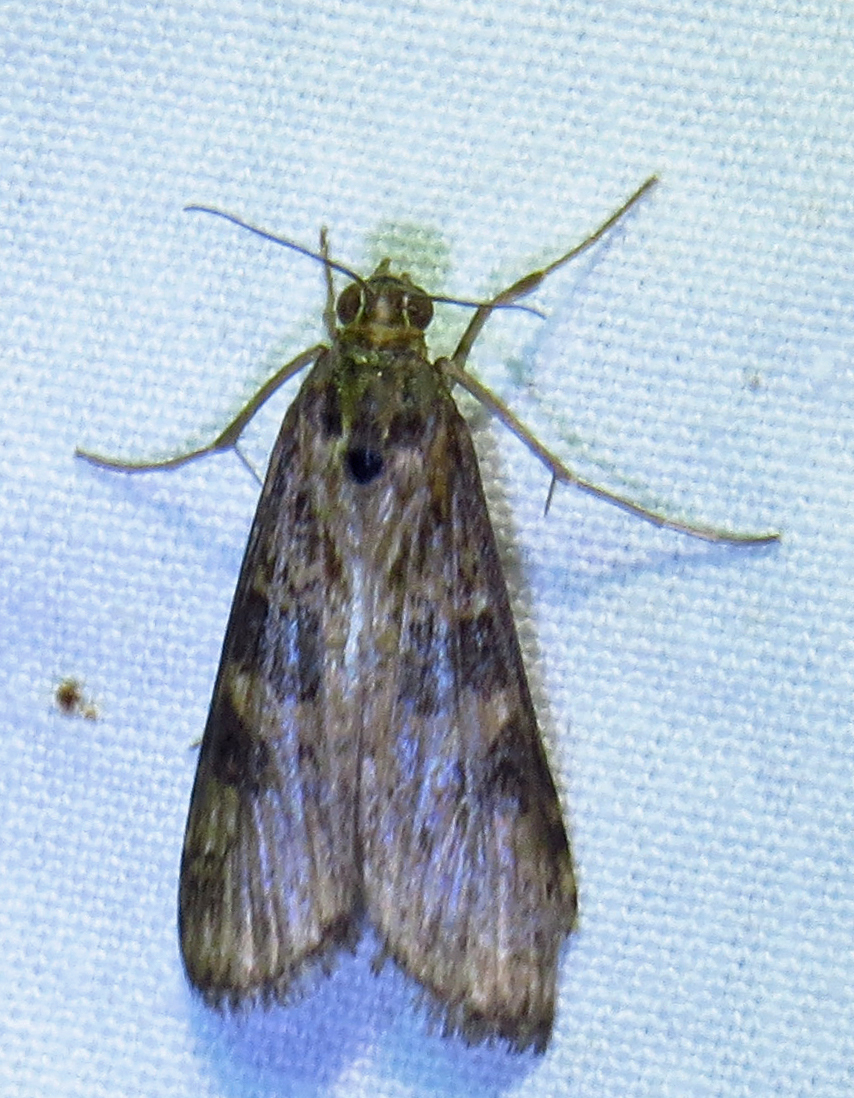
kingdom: Animalia
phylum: Arthropoda
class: Insecta
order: Lepidoptera
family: Crambidae
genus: Nomophila
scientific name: Nomophila nearctica
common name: American rush veneer
